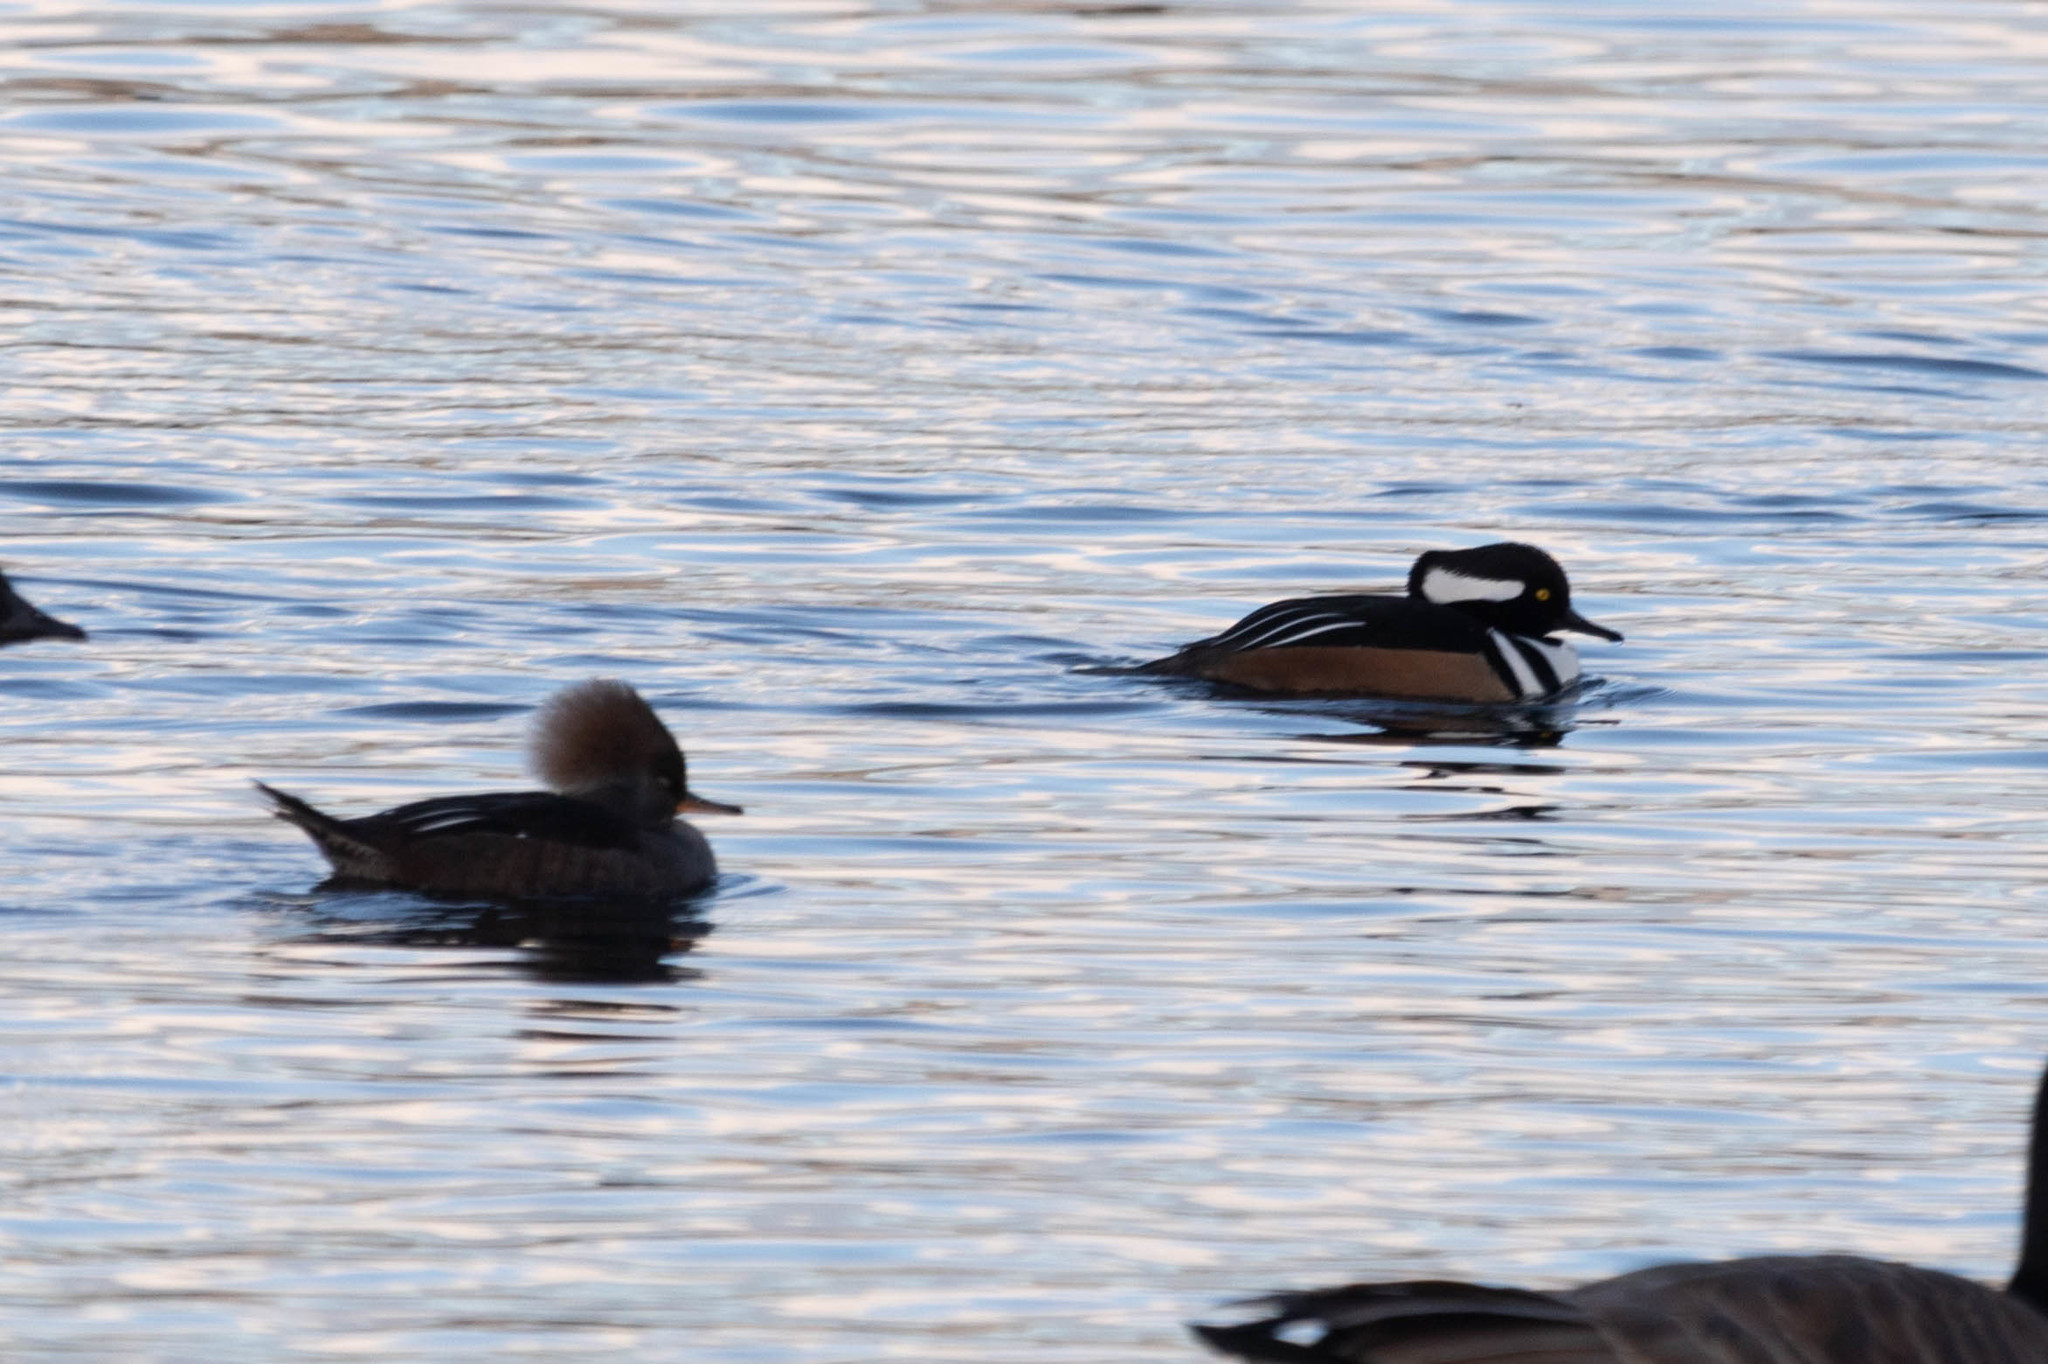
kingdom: Animalia
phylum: Chordata
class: Aves
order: Anseriformes
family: Anatidae
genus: Lophodytes
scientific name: Lophodytes cucullatus
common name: Hooded merganser
